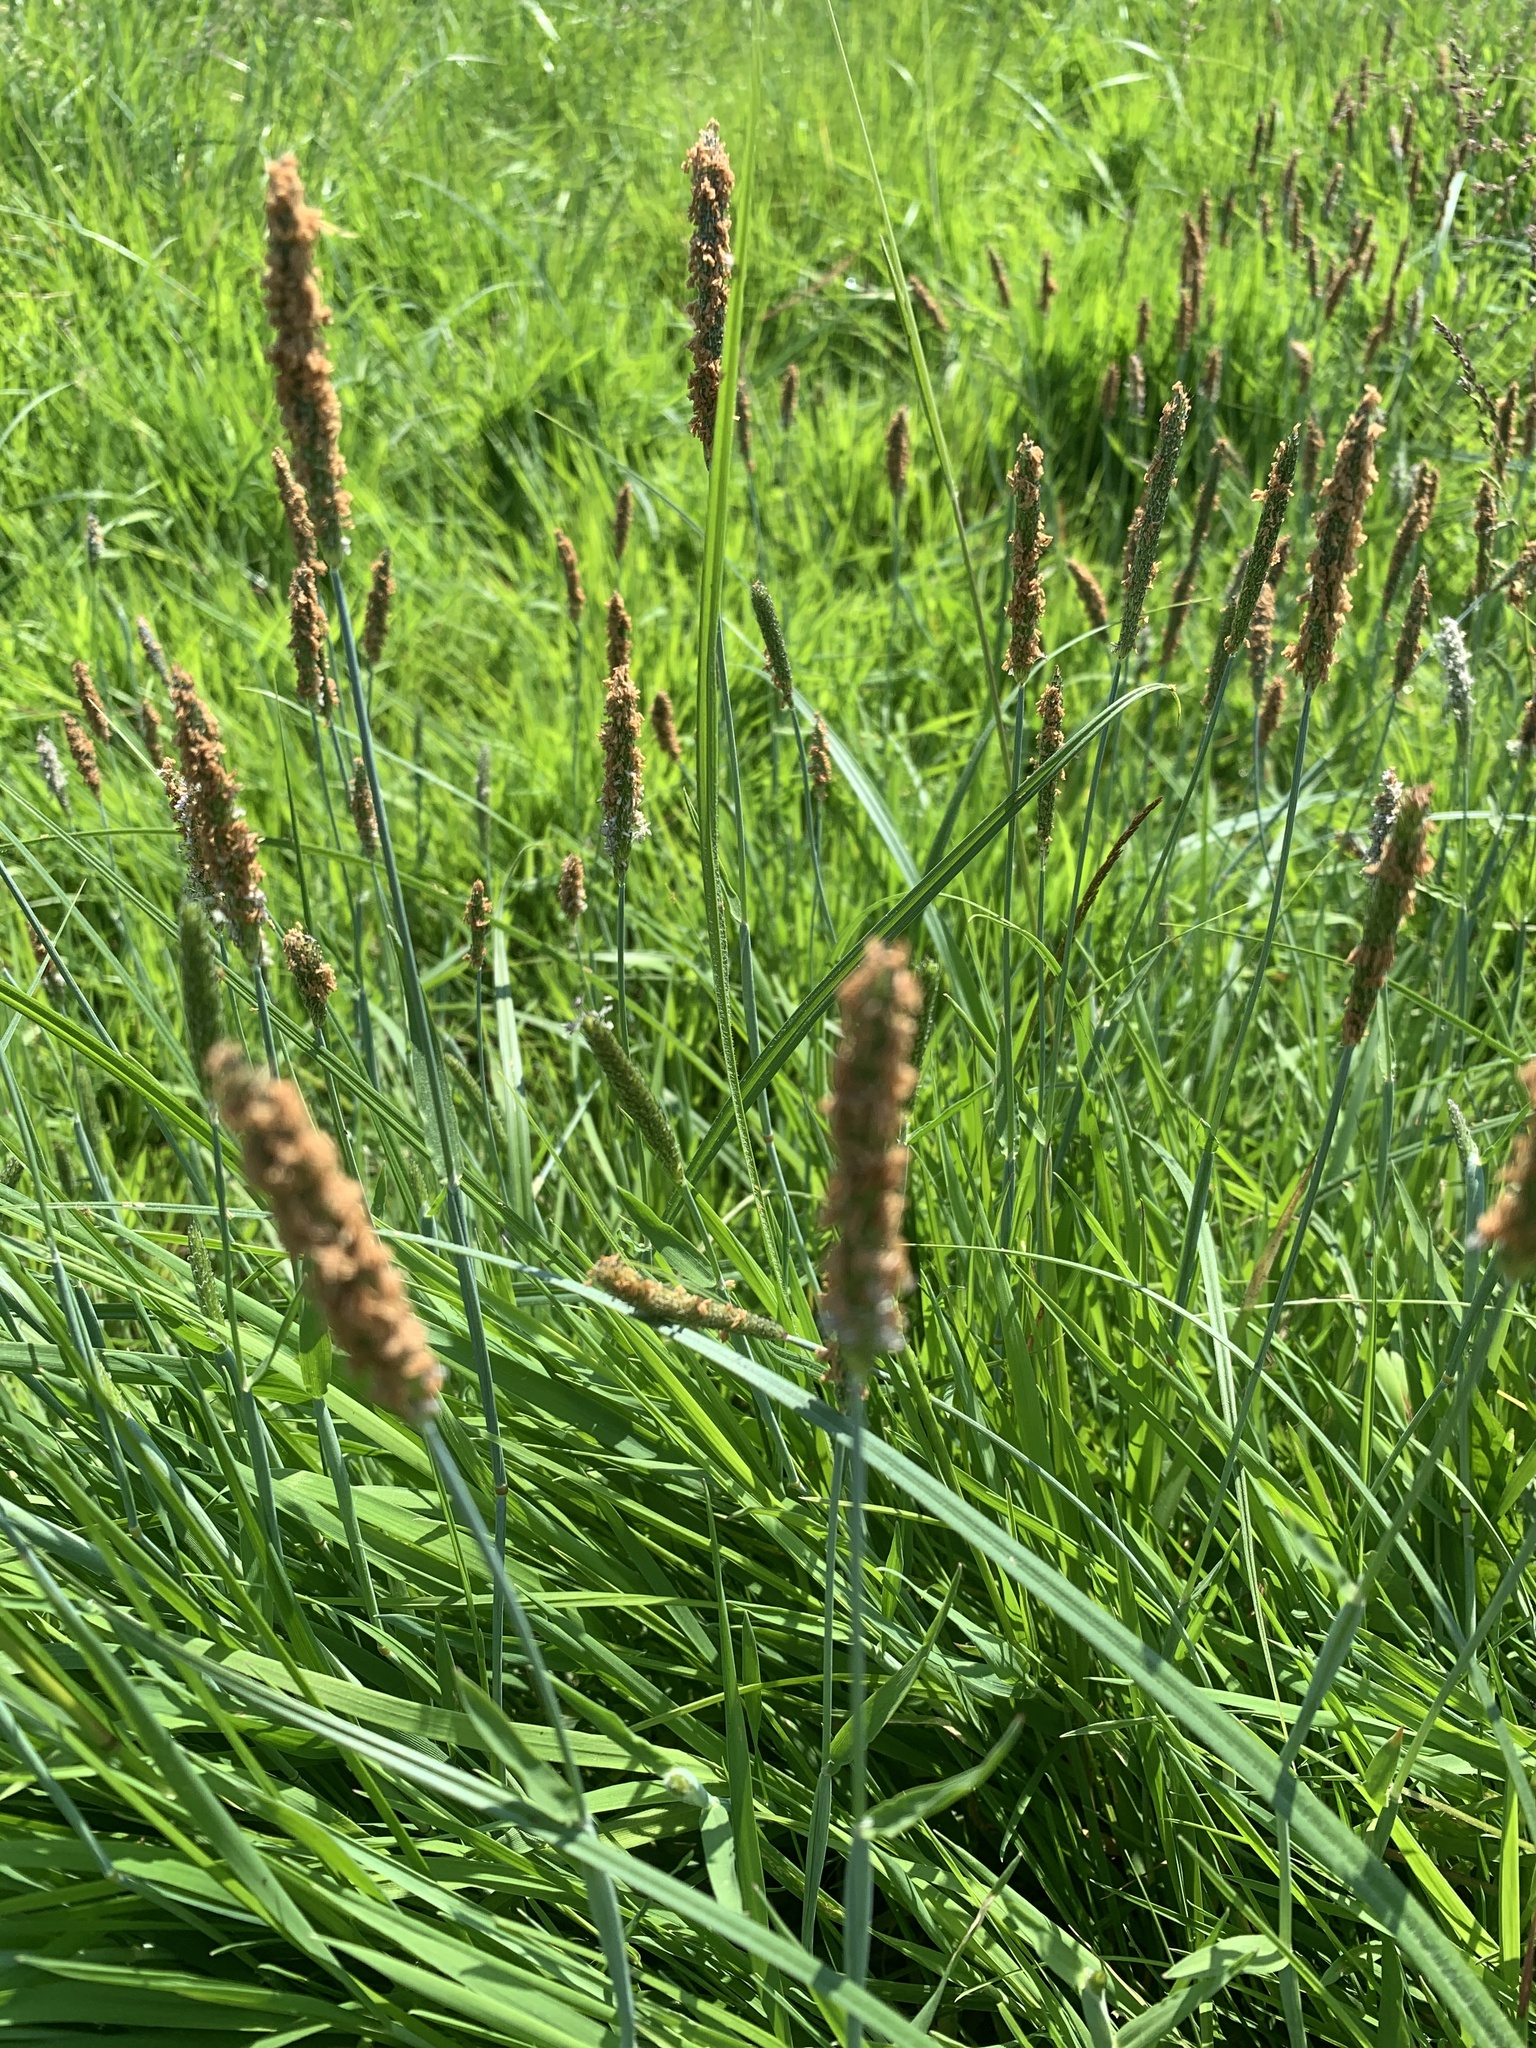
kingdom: Plantae
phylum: Tracheophyta
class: Liliopsida
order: Poales
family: Poaceae
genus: Alopecurus
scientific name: Alopecurus pratensis
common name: Meadow foxtail
